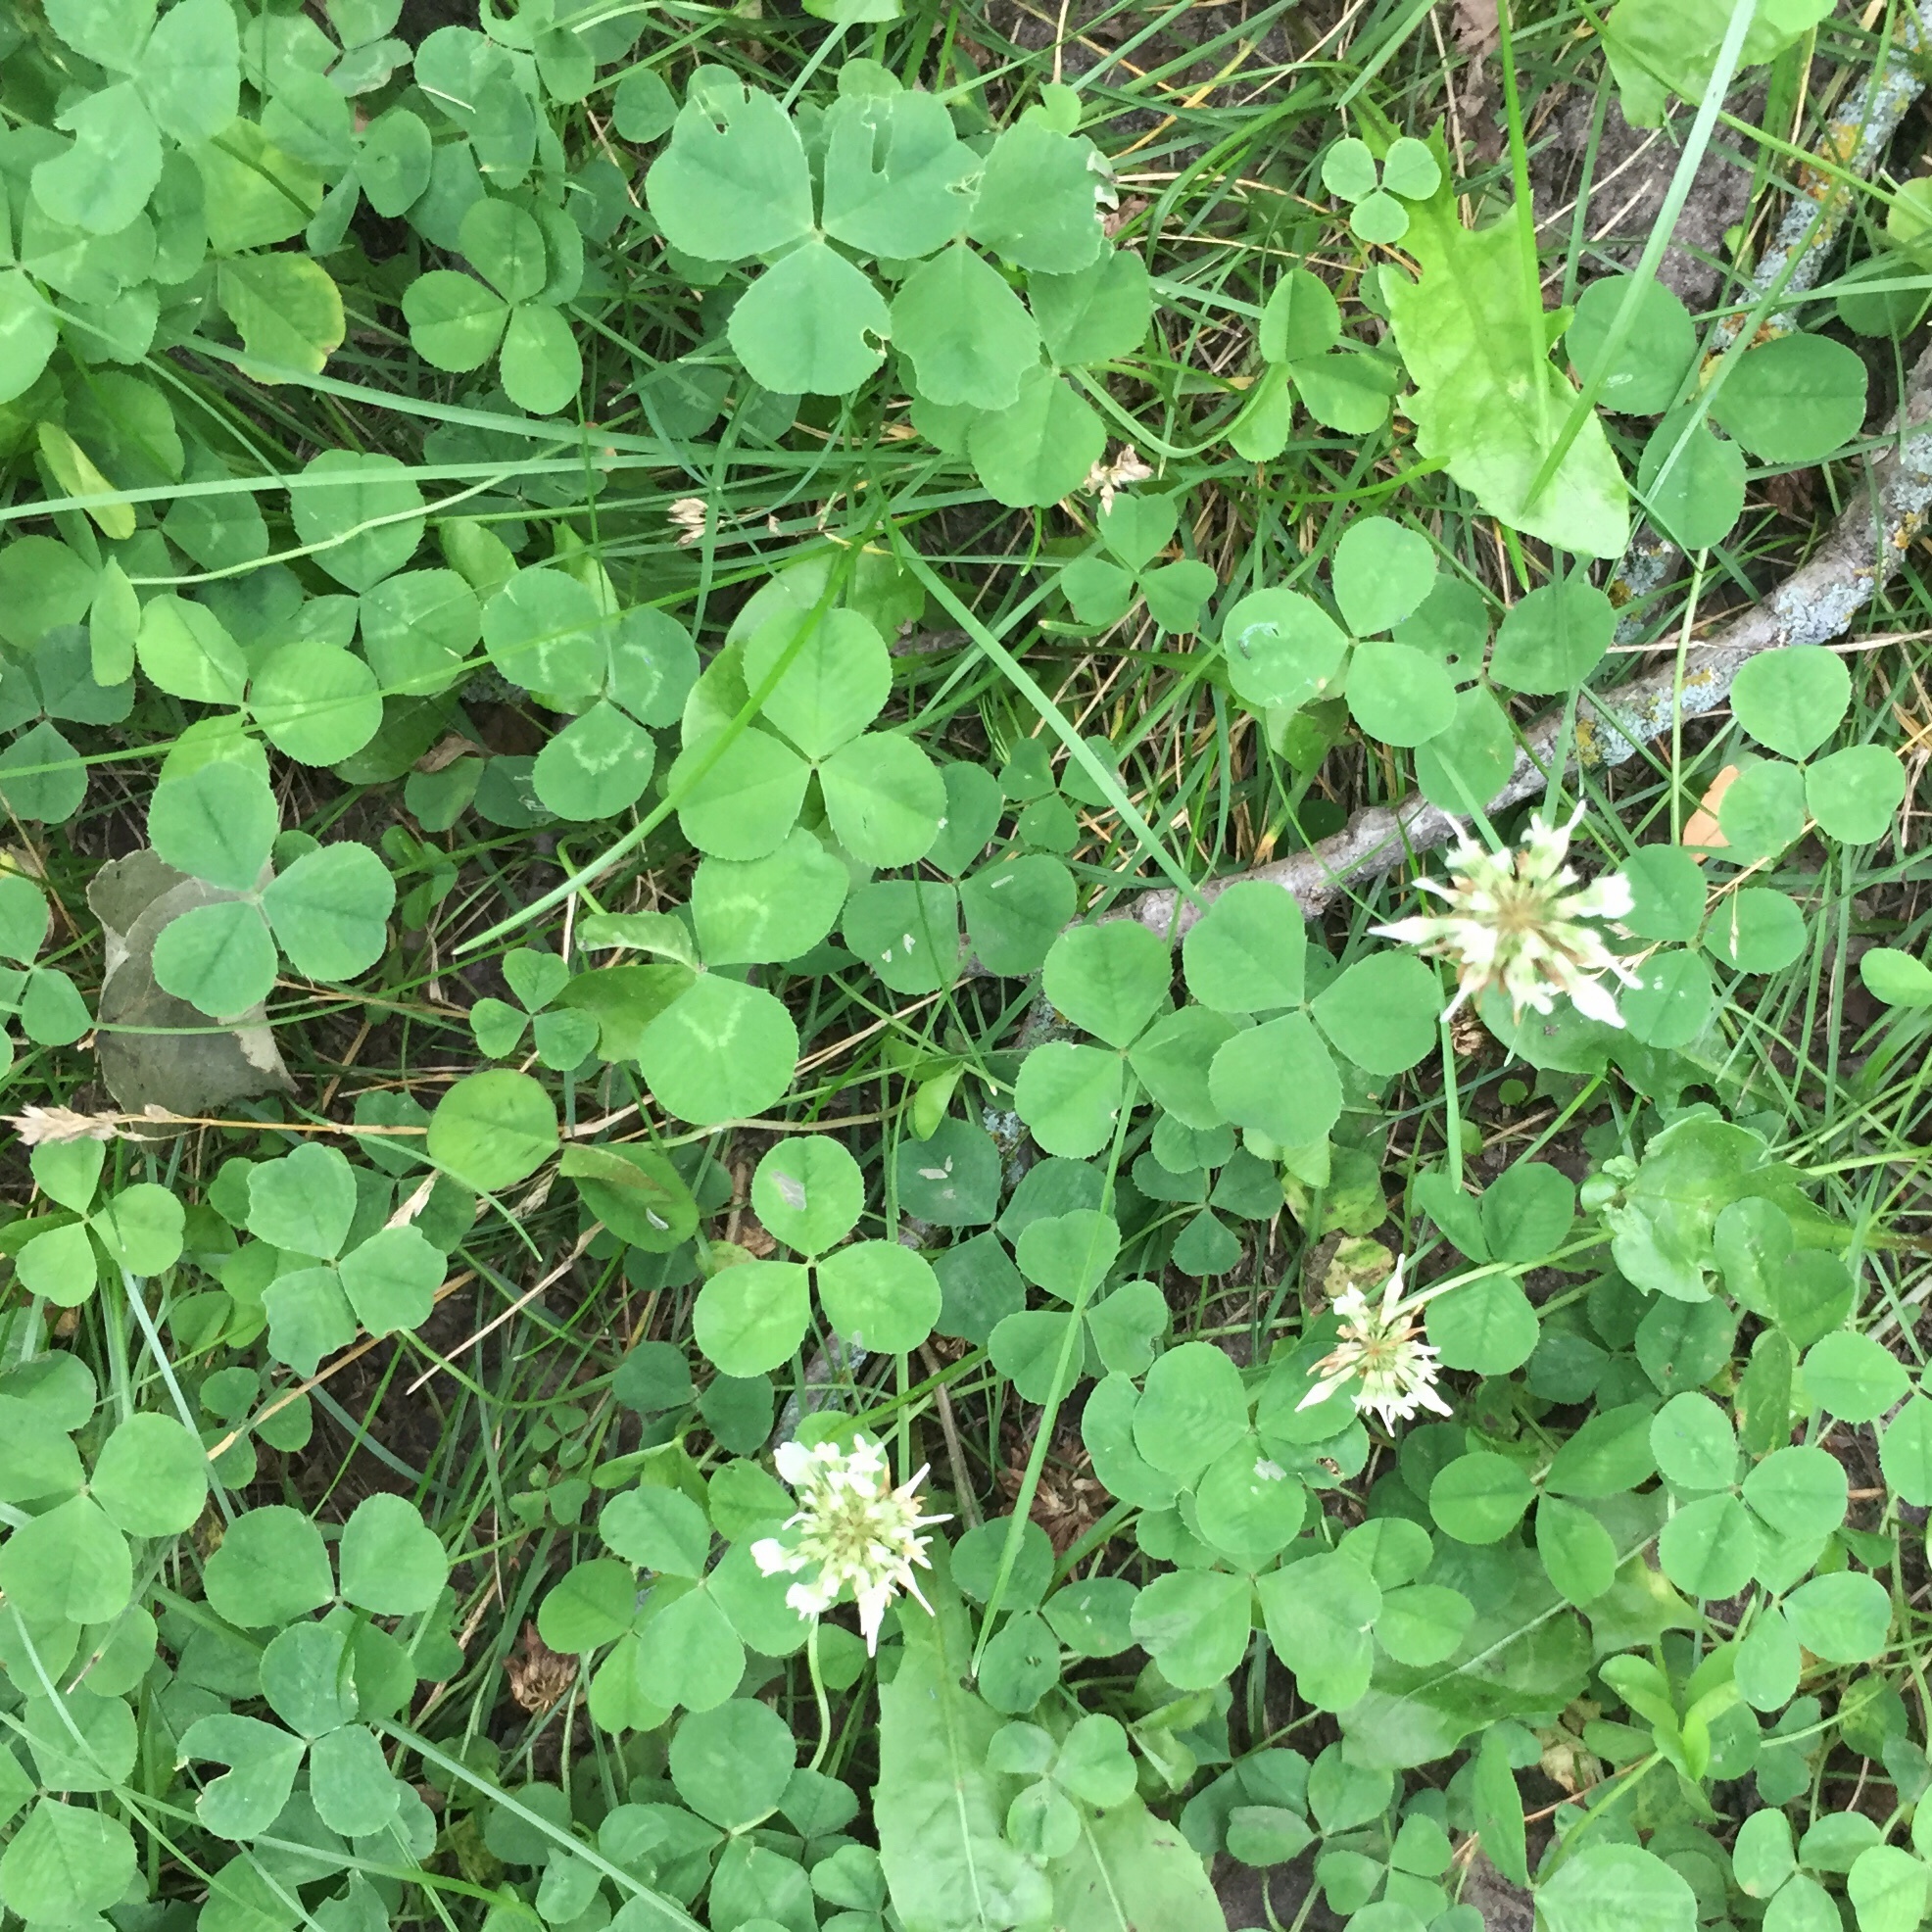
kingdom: Plantae
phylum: Tracheophyta
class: Magnoliopsida
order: Fabales
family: Fabaceae
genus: Trifolium
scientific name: Trifolium repens
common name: White clover
